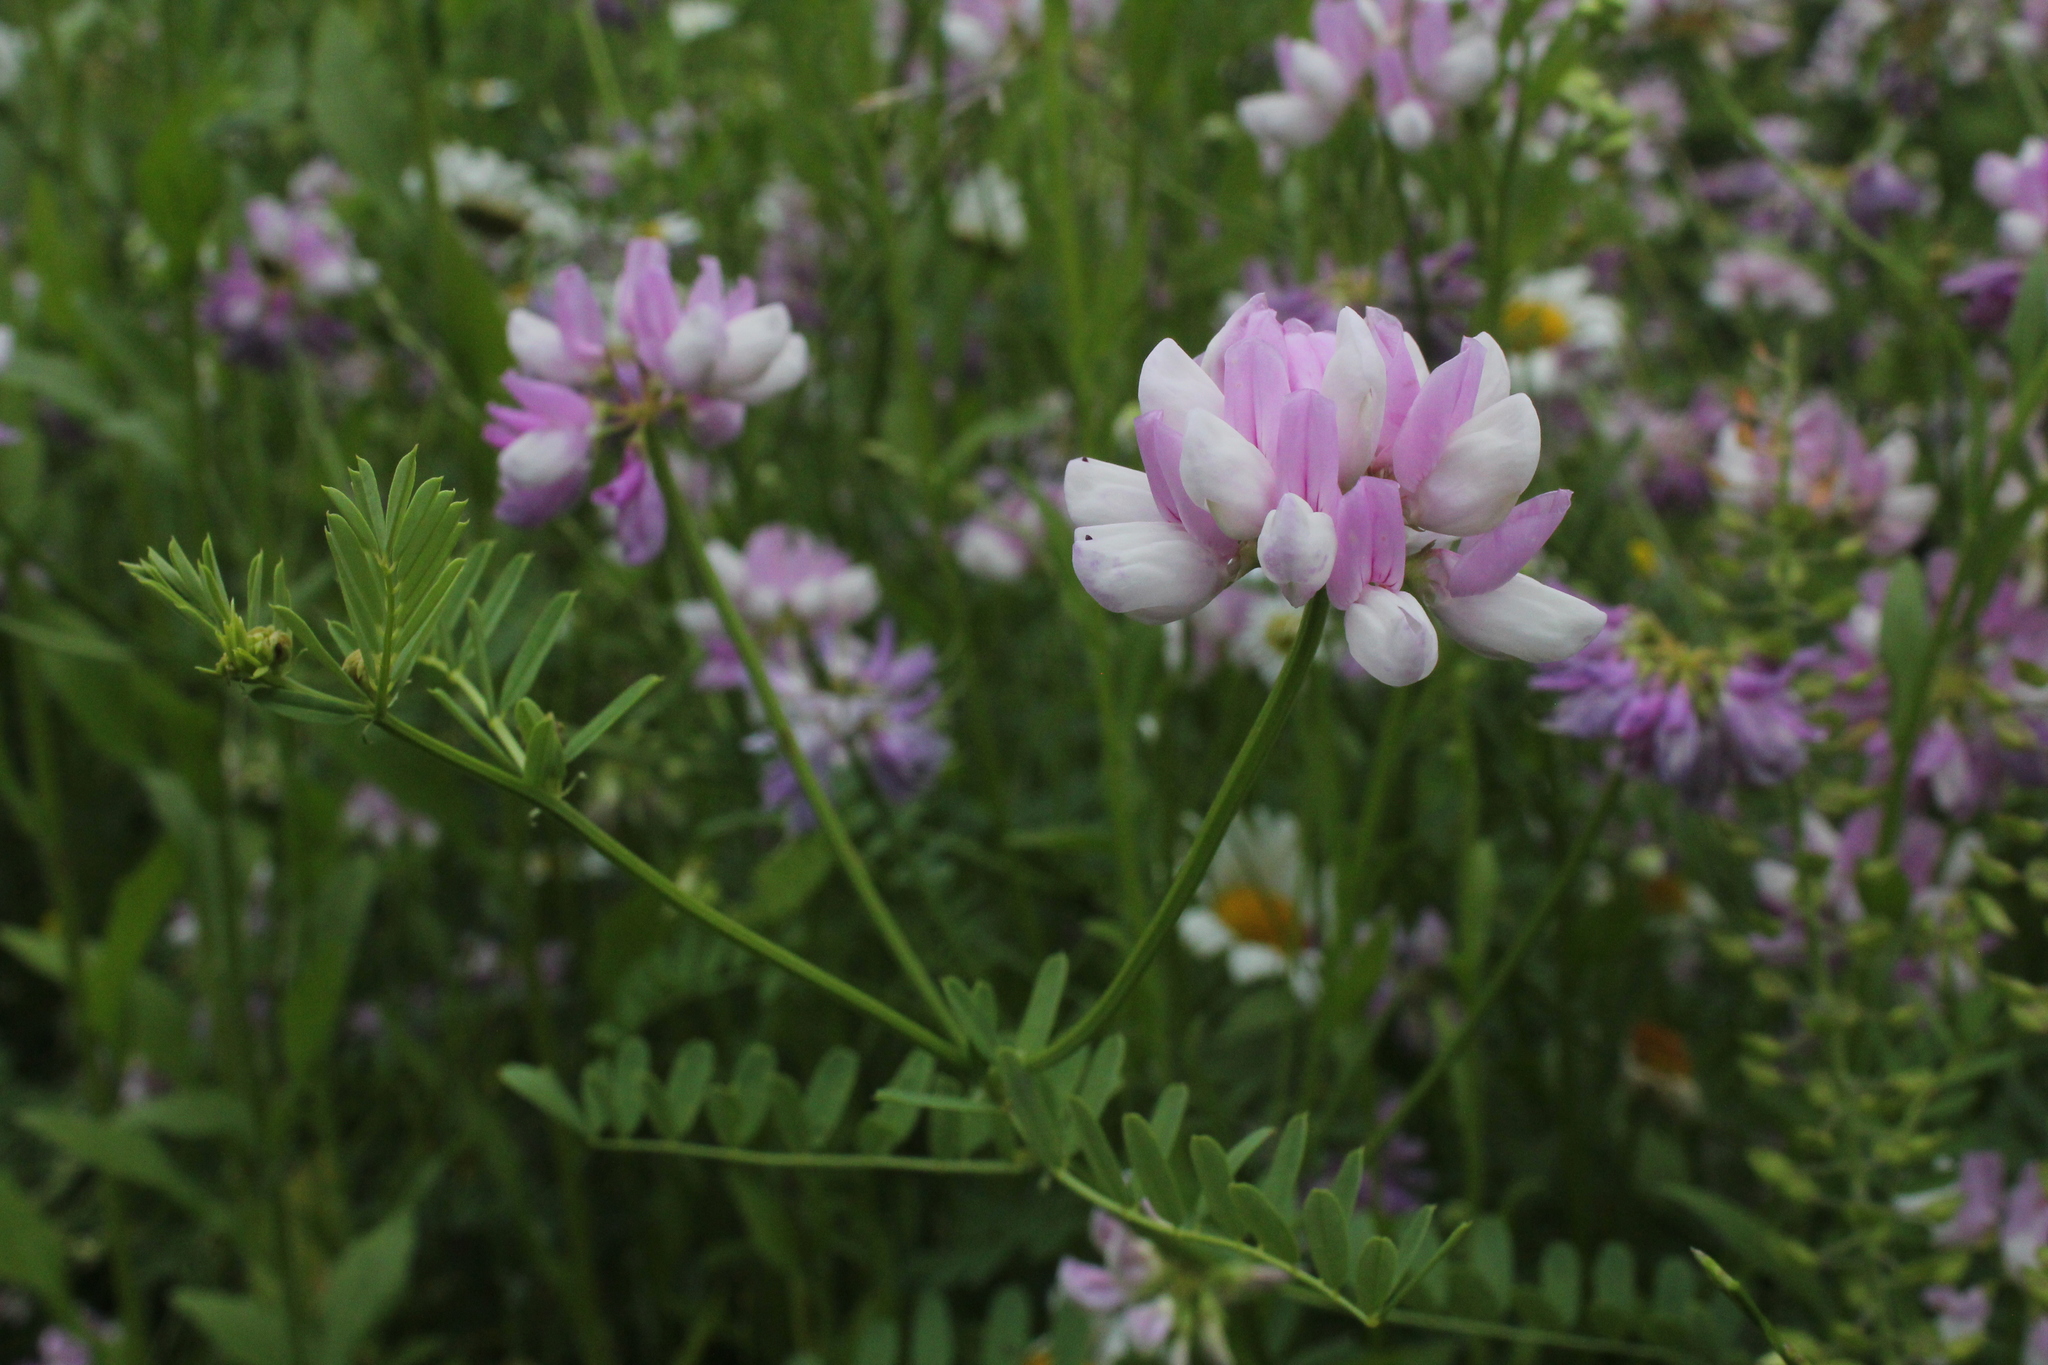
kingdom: Plantae
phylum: Tracheophyta
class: Magnoliopsida
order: Fabales
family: Fabaceae
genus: Coronilla
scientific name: Coronilla varia
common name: Crownvetch
